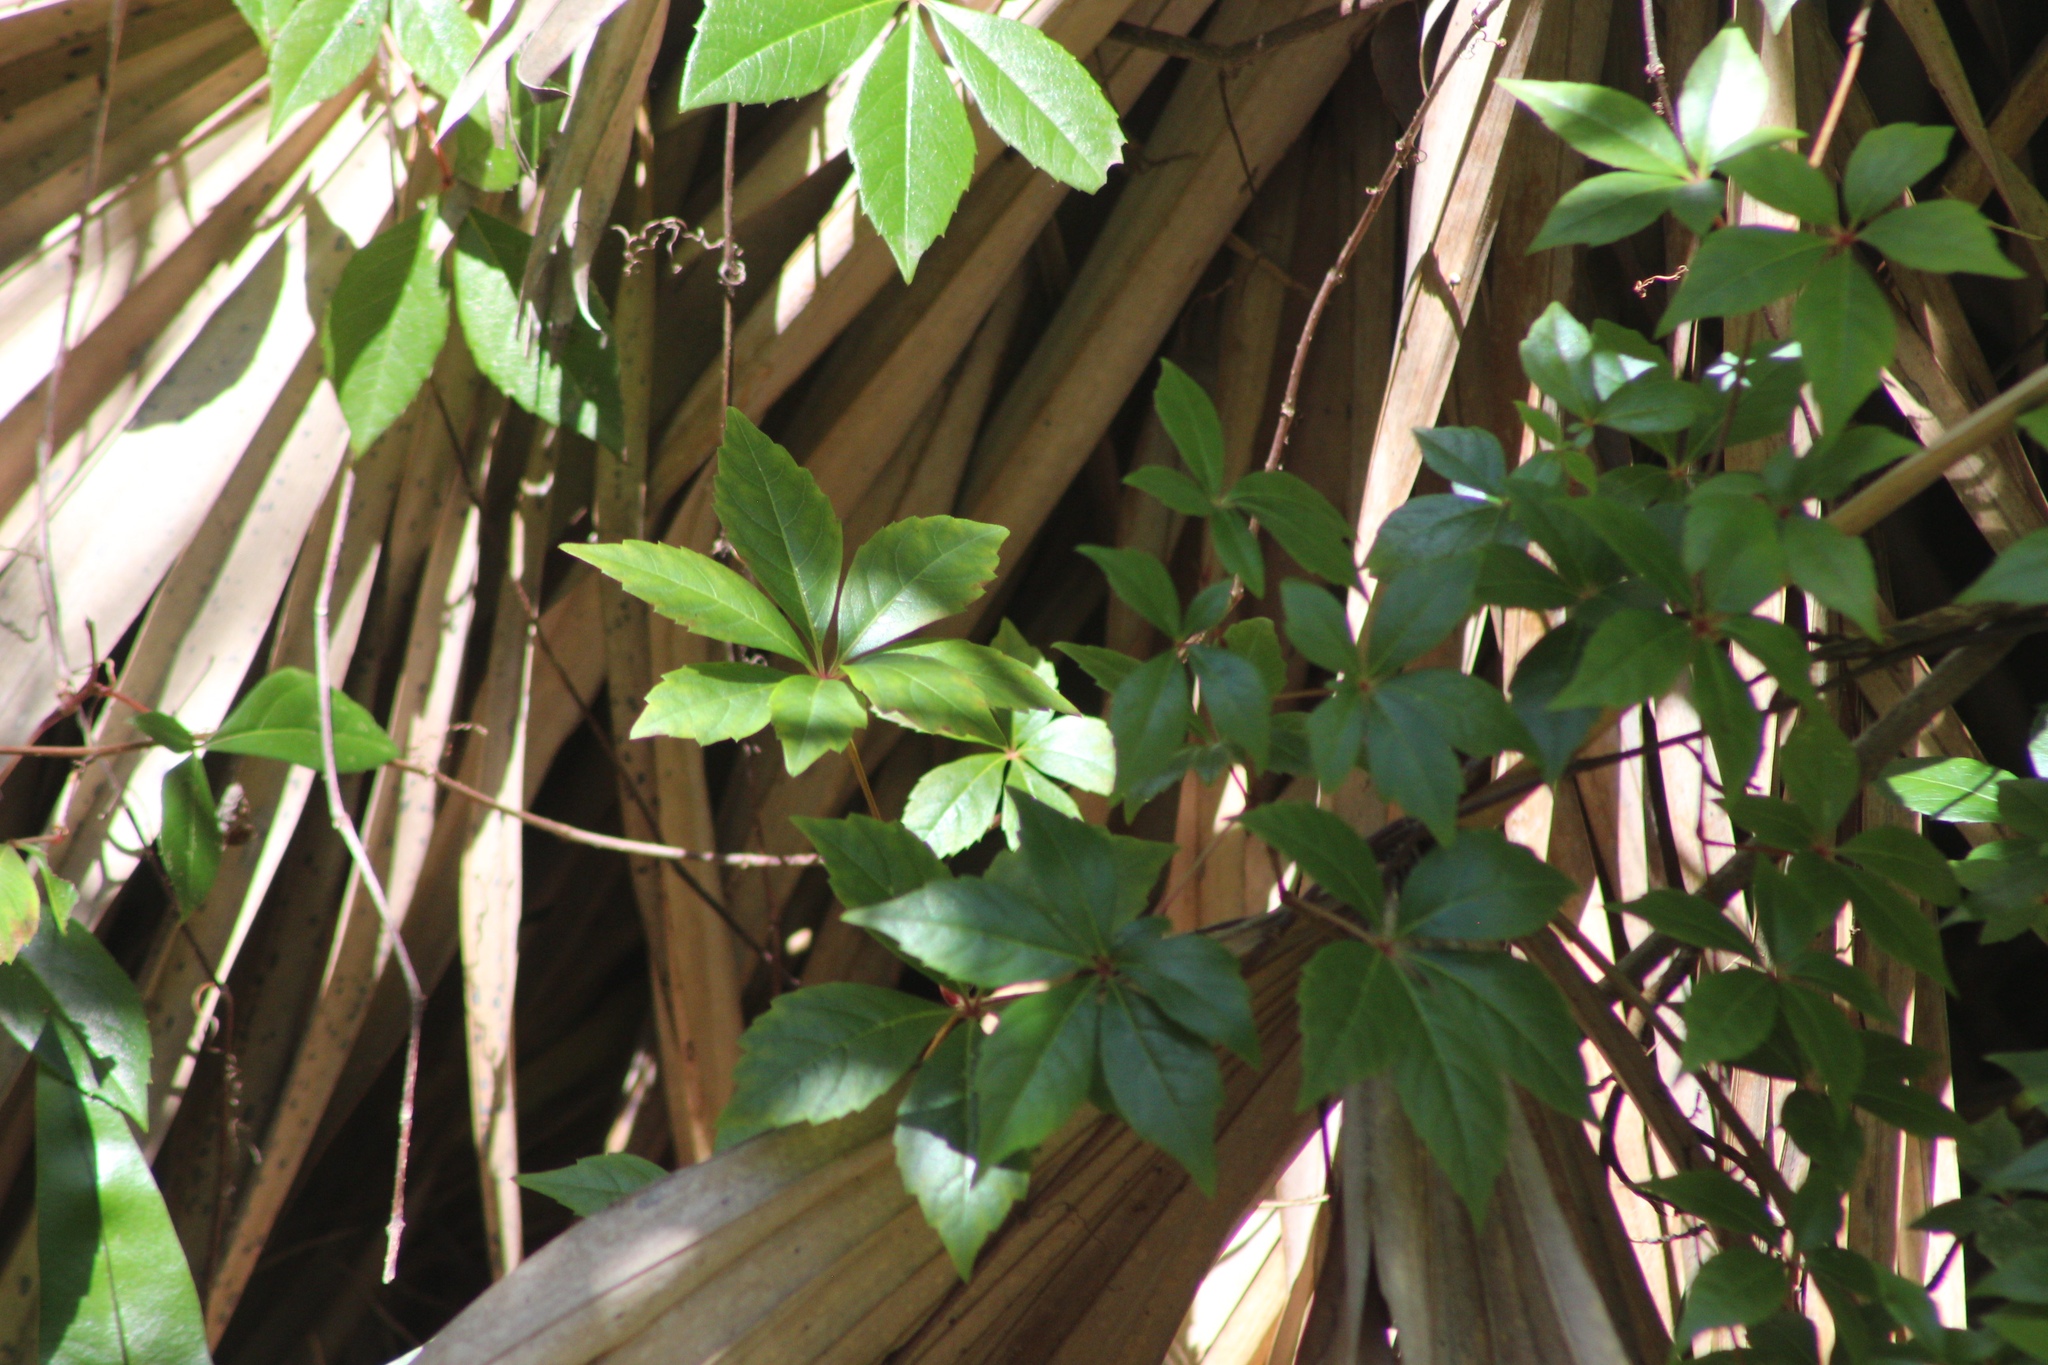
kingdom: Plantae
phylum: Tracheophyta
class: Magnoliopsida
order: Vitales
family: Vitaceae
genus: Parthenocissus
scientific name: Parthenocissus quinquefolia
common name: Virginia-creeper
